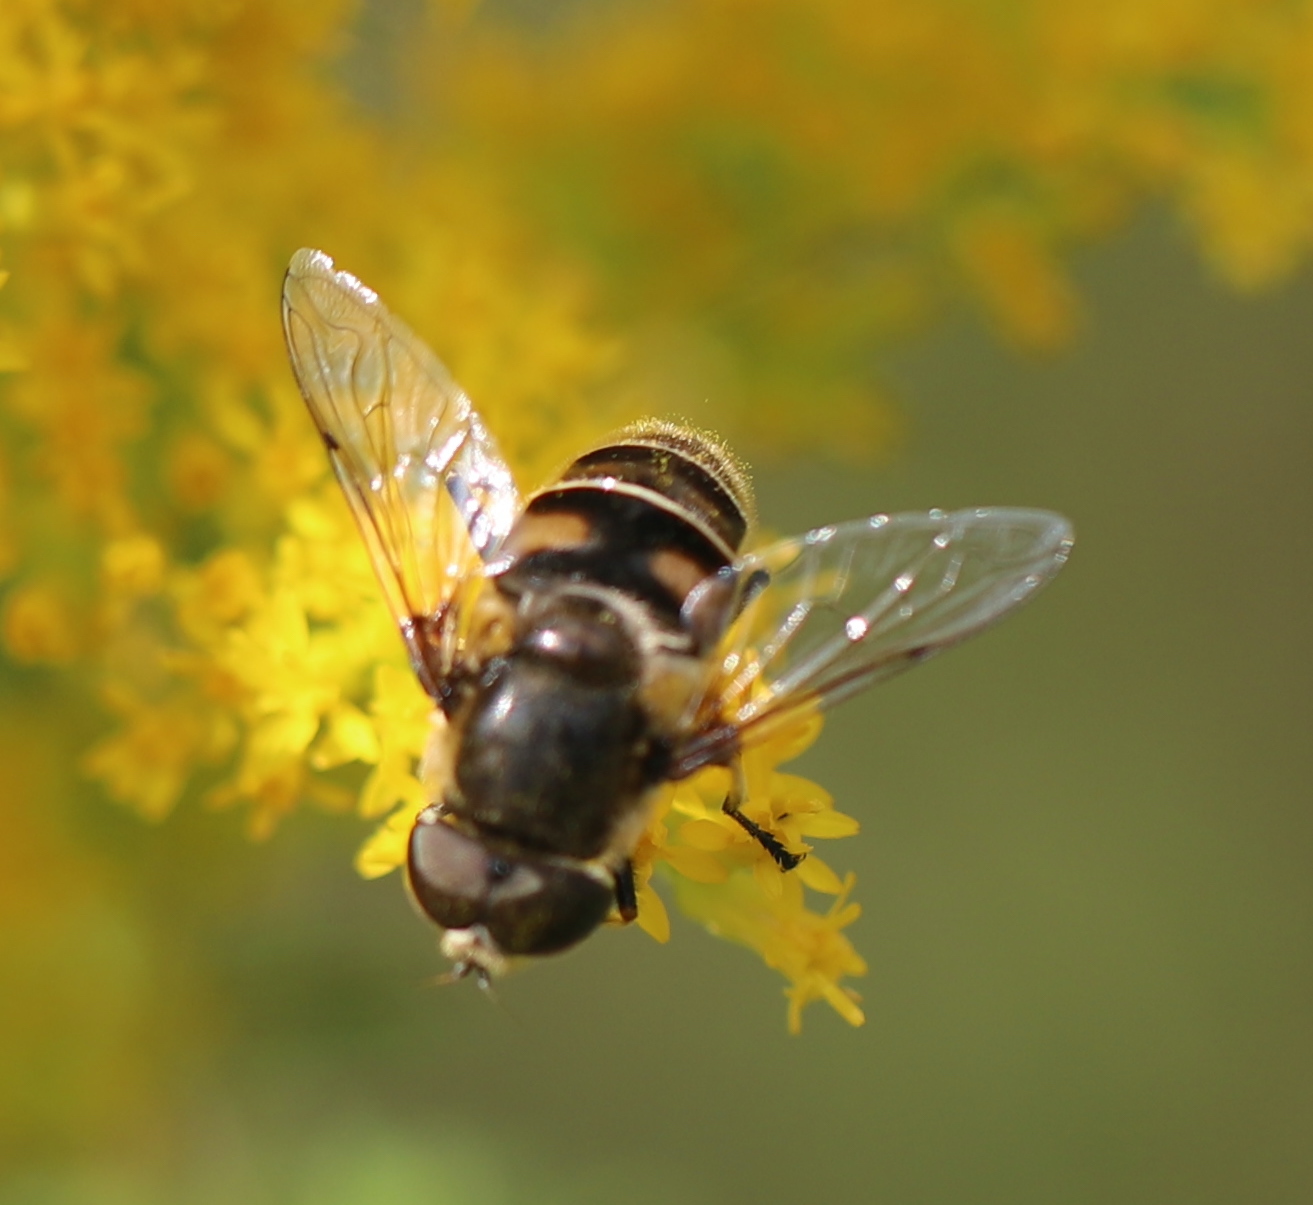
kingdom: Animalia
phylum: Arthropoda
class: Insecta
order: Diptera
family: Syrphidae
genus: Eristalis
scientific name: Eristalis dimidiata
